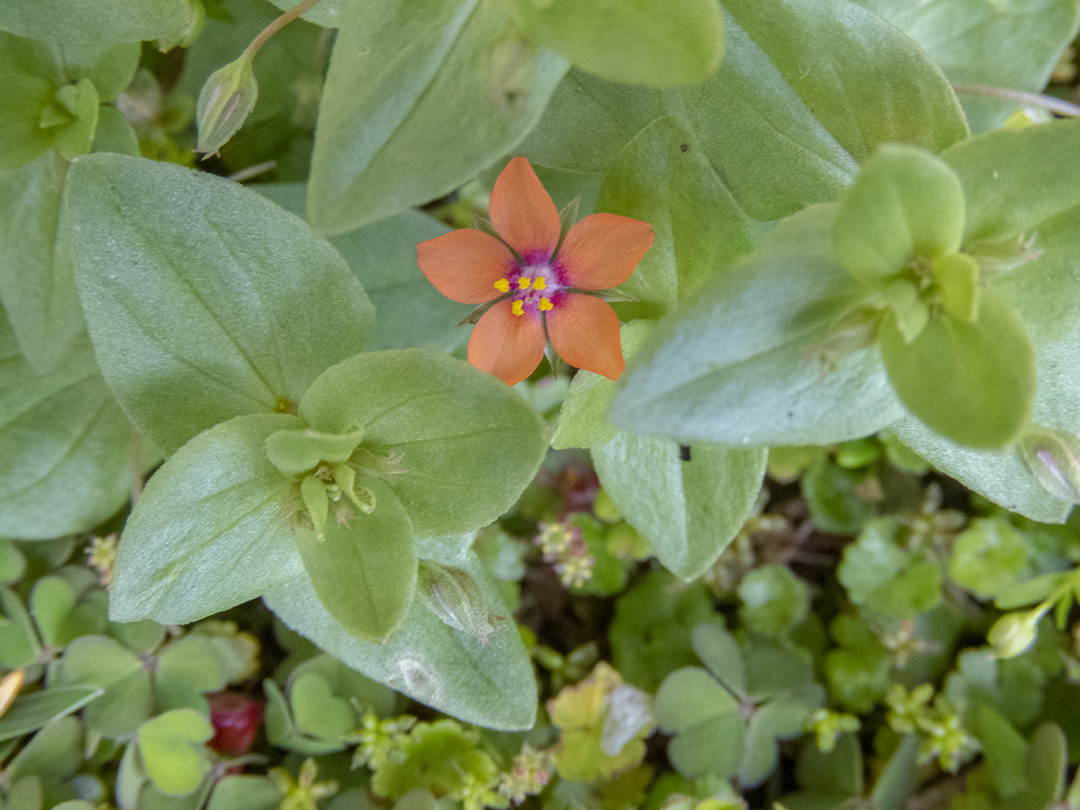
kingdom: Plantae
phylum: Tracheophyta
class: Magnoliopsida
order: Ericales
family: Primulaceae
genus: Lysimachia
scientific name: Lysimachia arvensis
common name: Scarlet pimpernel
